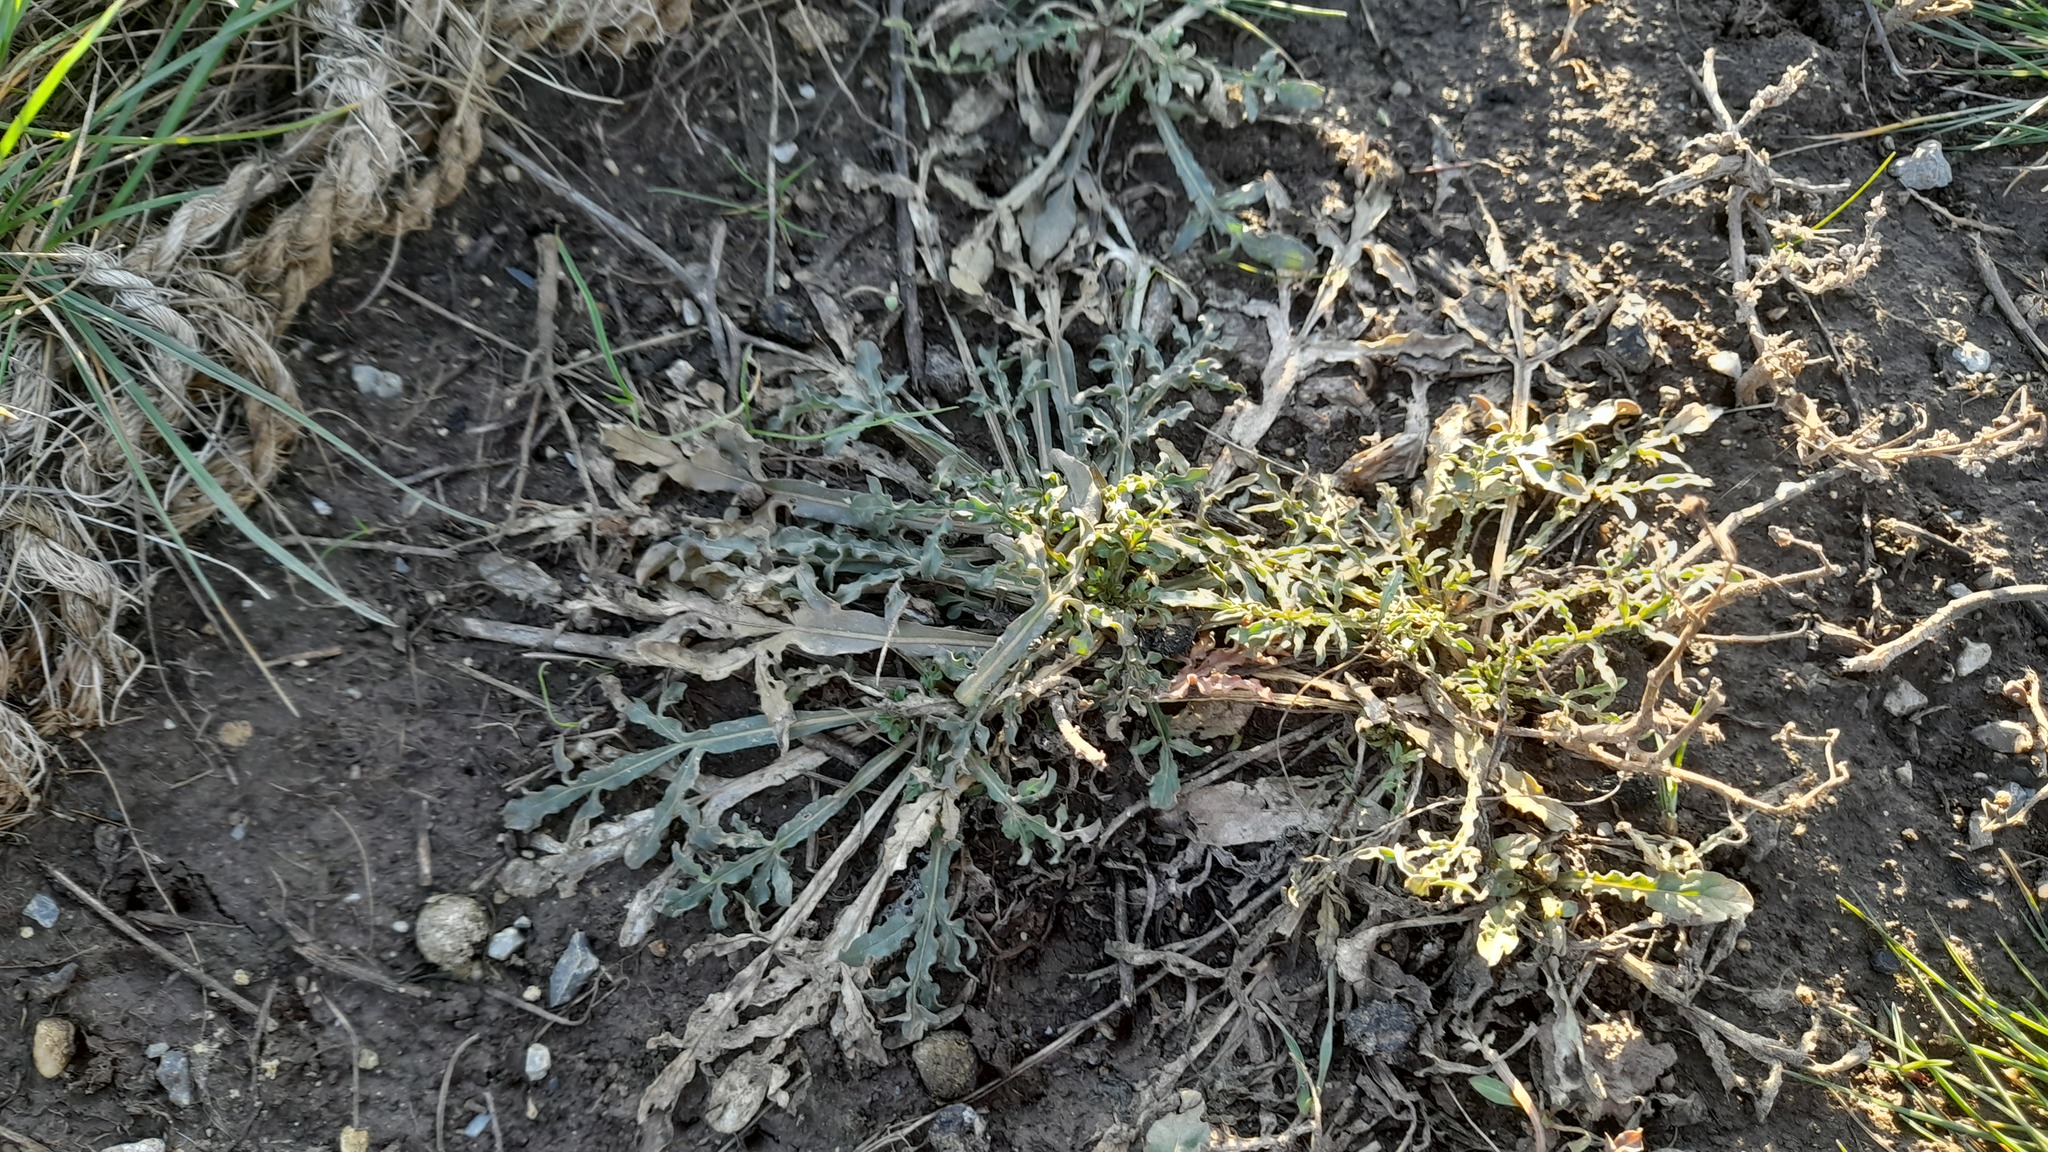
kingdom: Plantae
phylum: Tracheophyta
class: Magnoliopsida
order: Brassicales
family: Resedaceae
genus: Reseda
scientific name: Reseda lutea
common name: Wild mignonette
